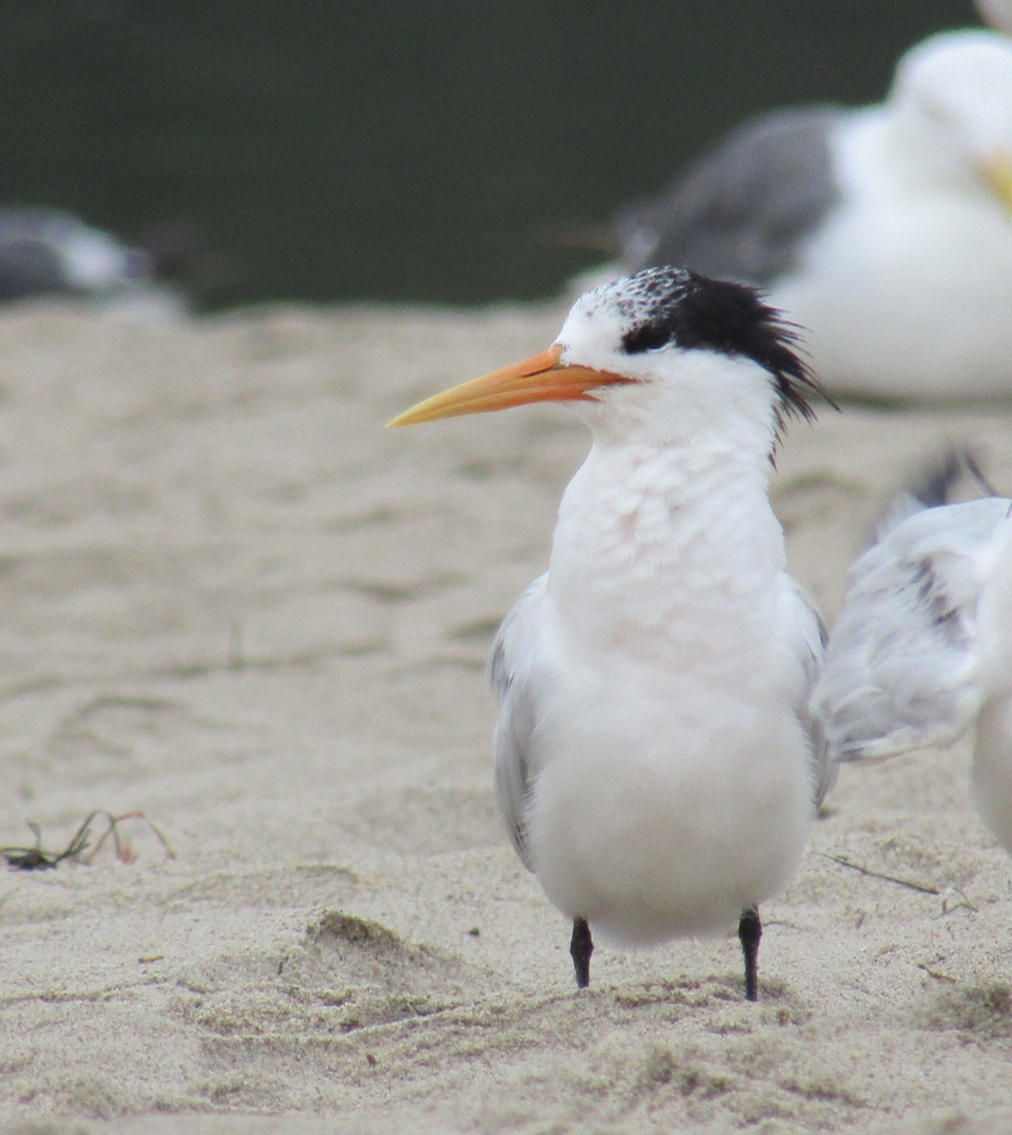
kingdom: Animalia
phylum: Chordata
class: Aves
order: Charadriiformes
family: Laridae
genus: Thalasseus
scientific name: Thalasseus elegans
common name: Elegant tern
